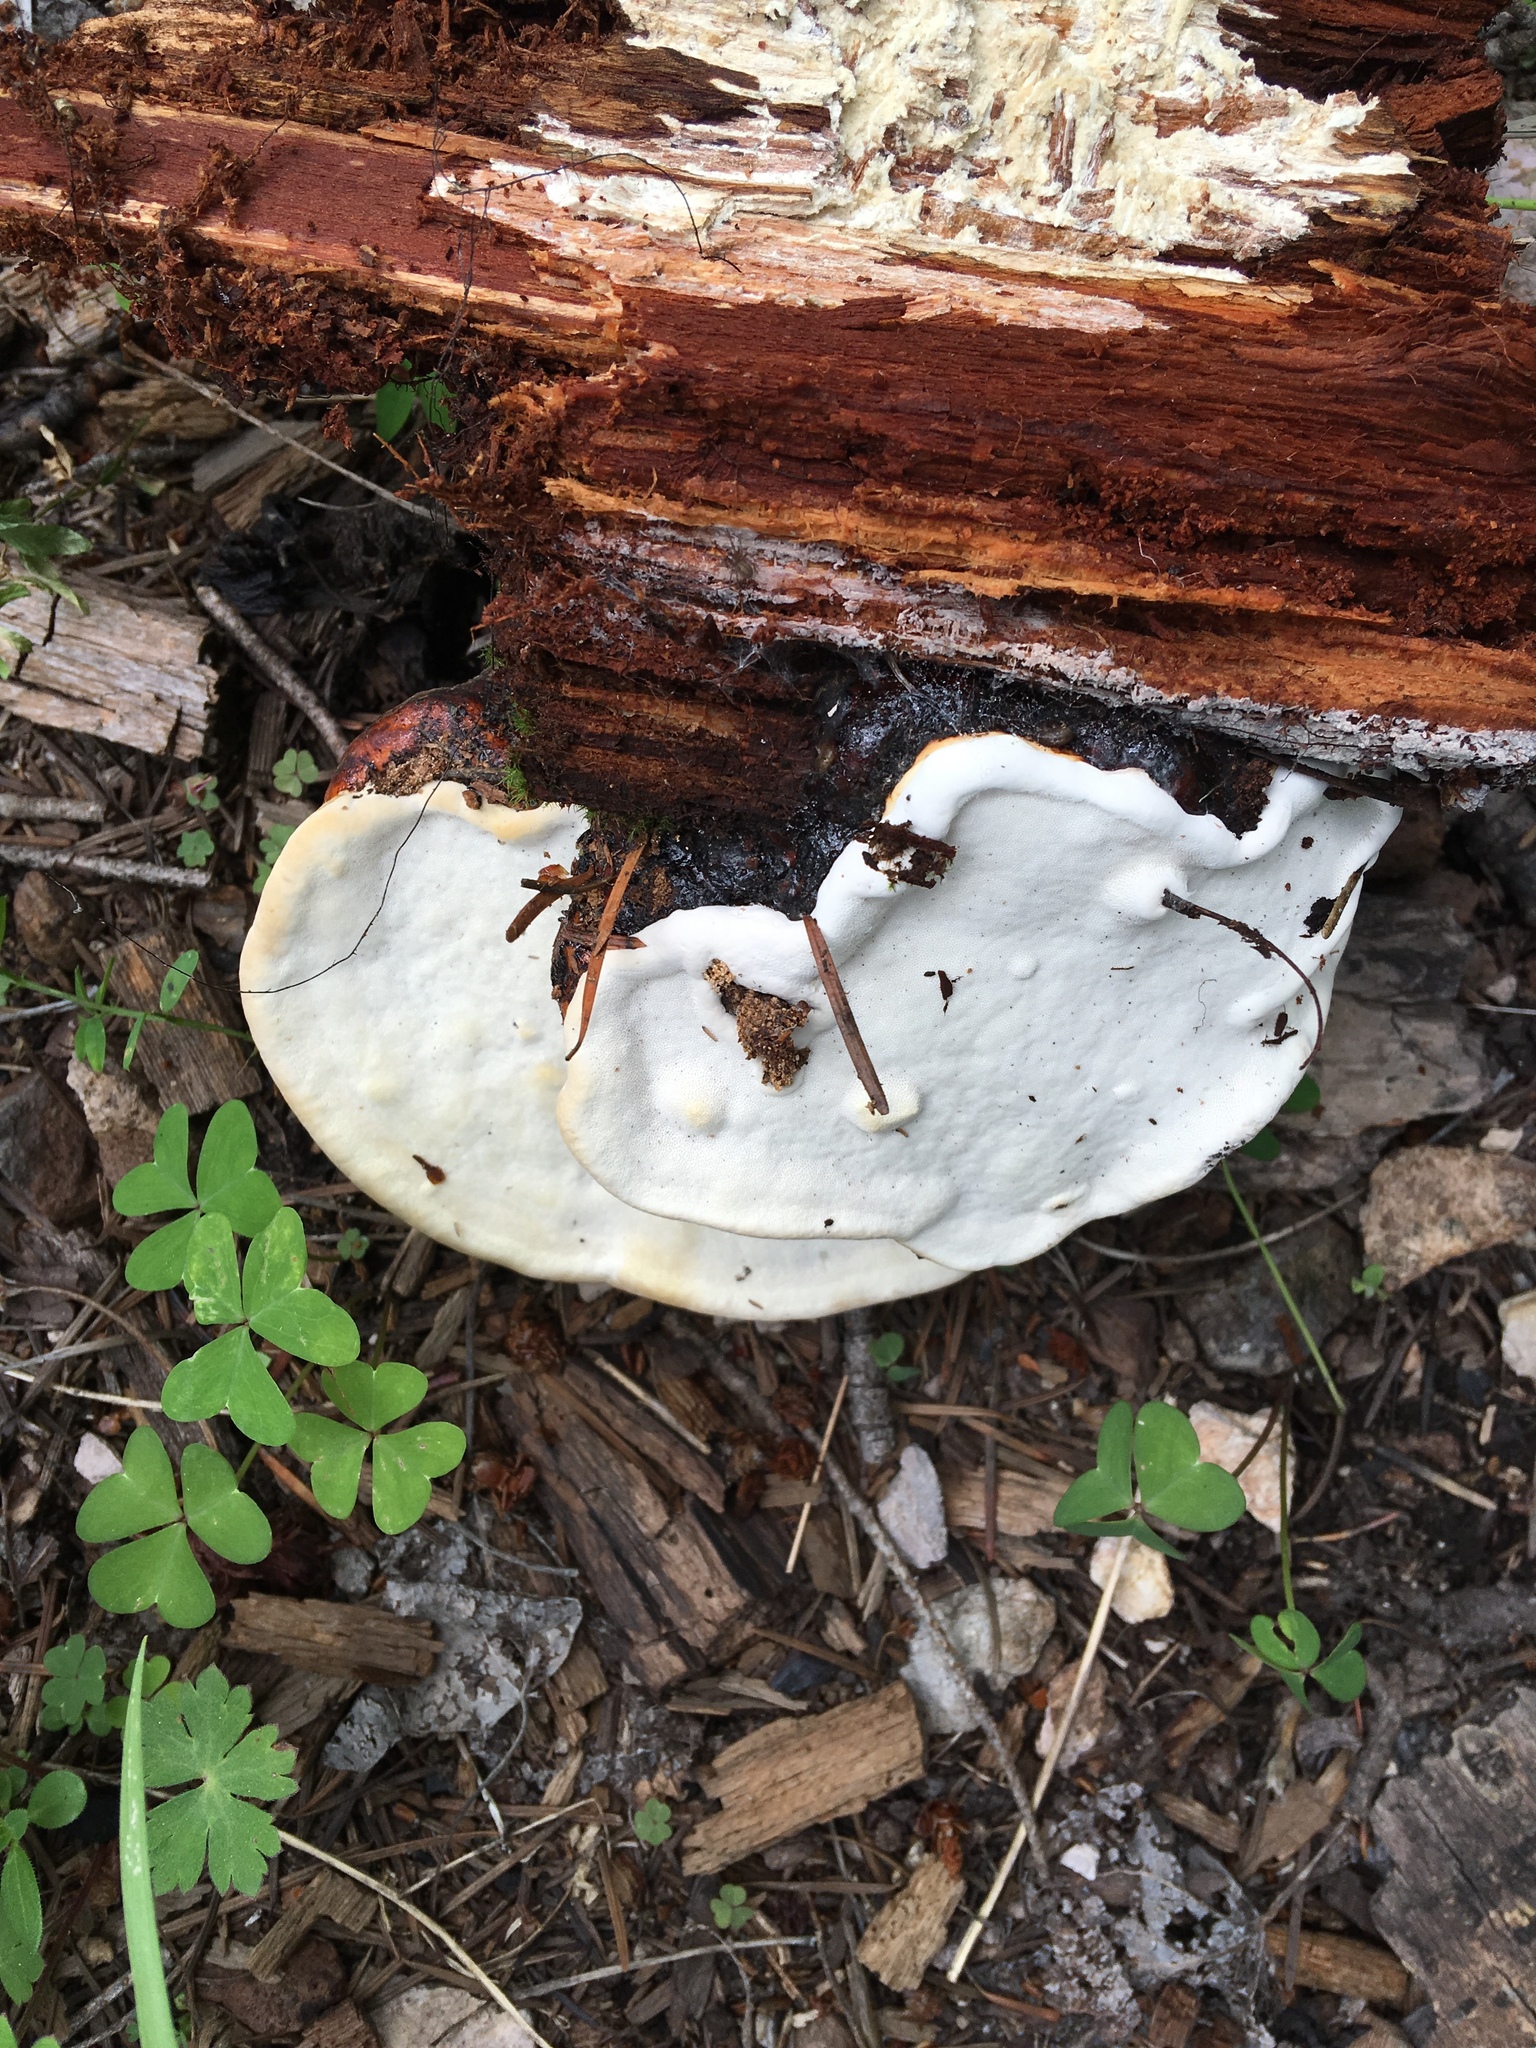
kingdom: Fungi
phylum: Basidiomycota
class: Agaricomycetes
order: Polyporales
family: Fomitopsidaceae
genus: Fomitopsis
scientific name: Fomitopsis schrenkii
